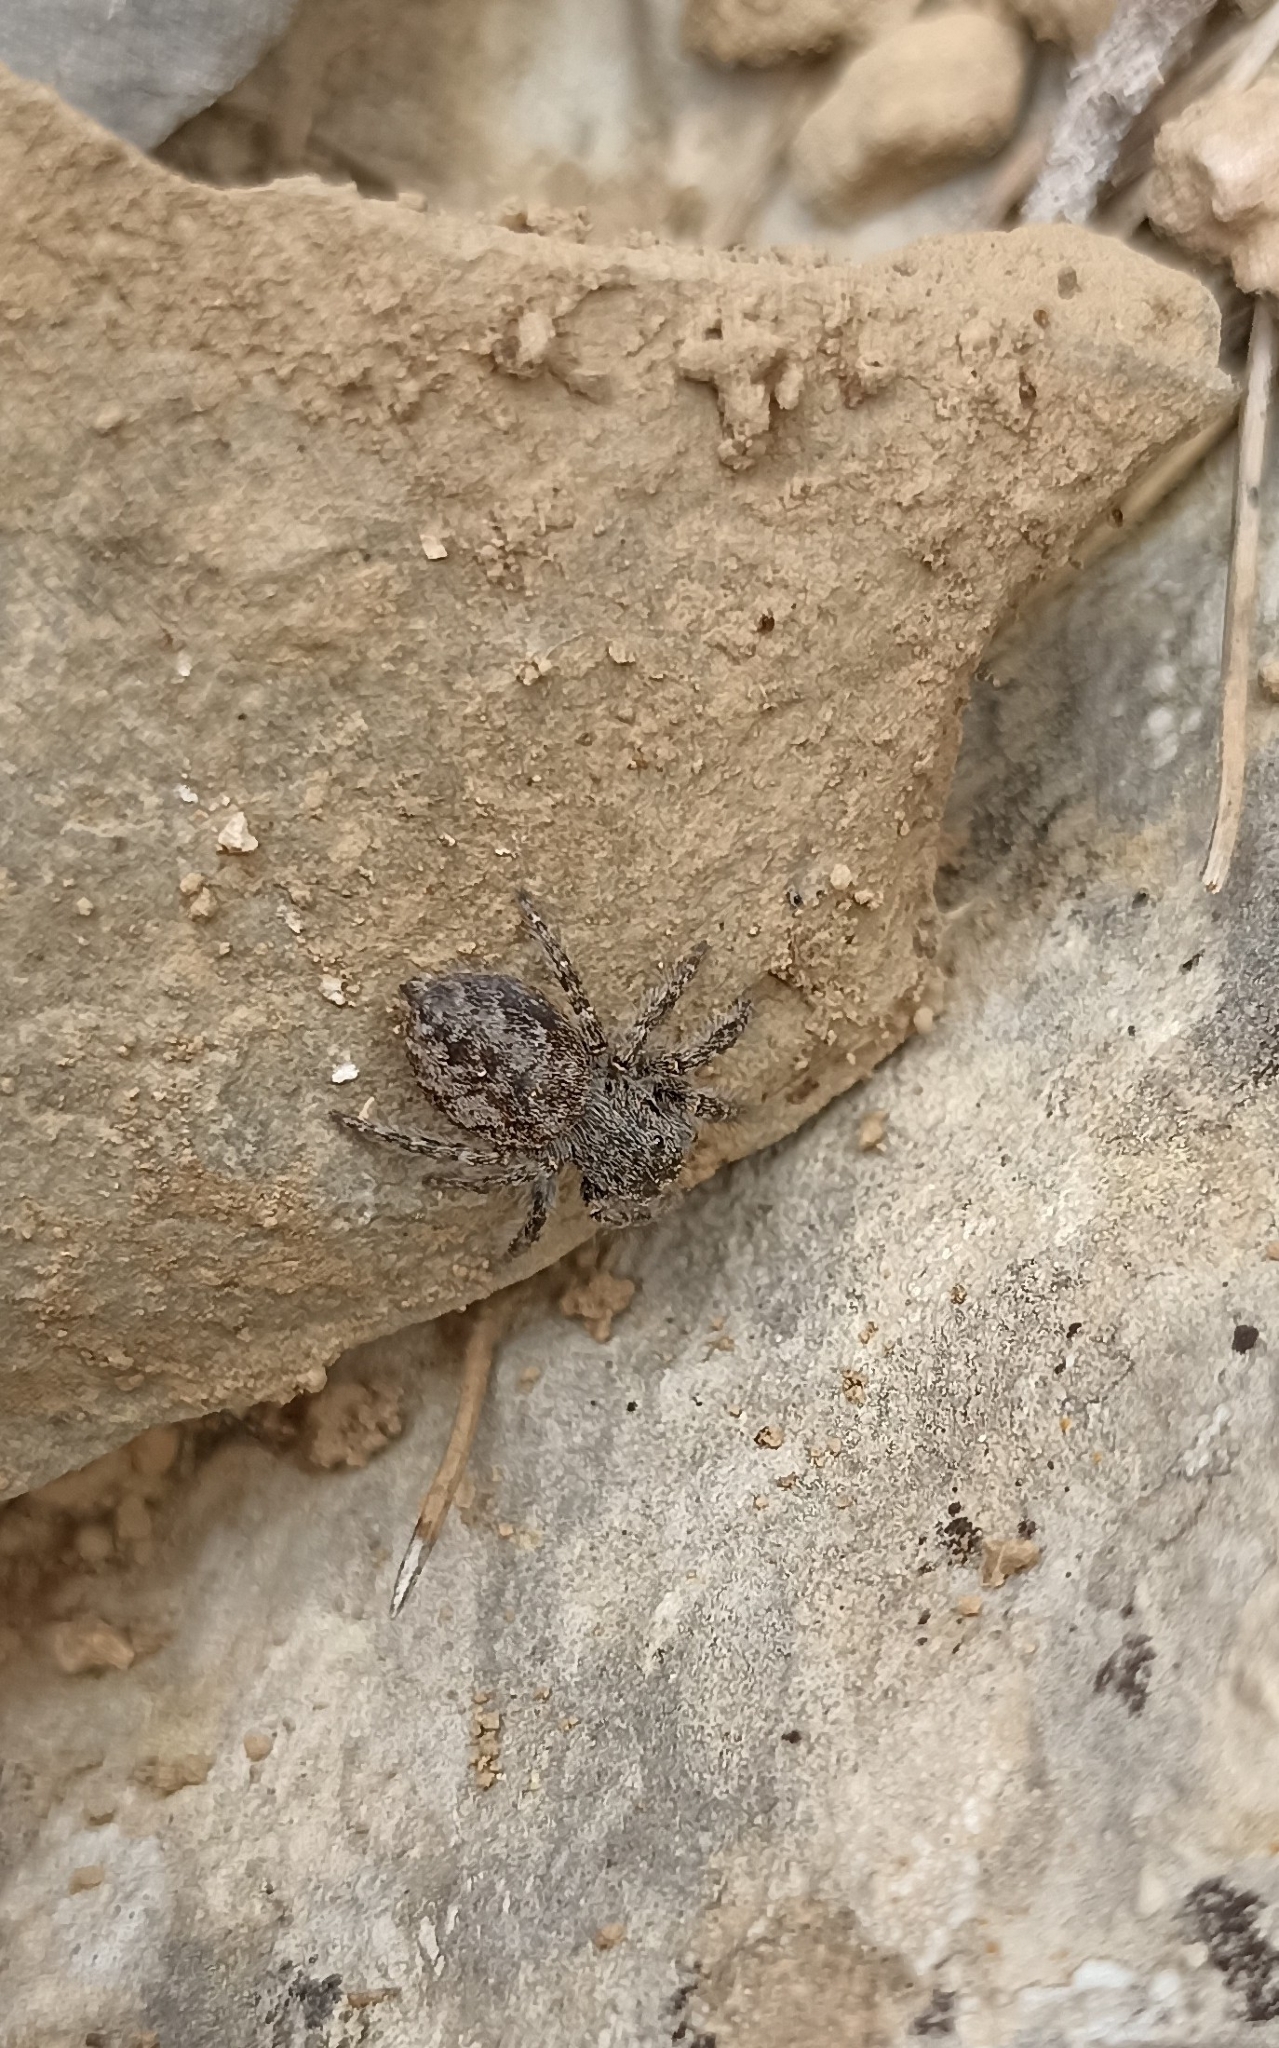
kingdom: Animalia
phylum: Arthropoda
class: Arachnida
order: Araneae
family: Salticidae
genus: Philaeus
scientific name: Philaeus chrysops
